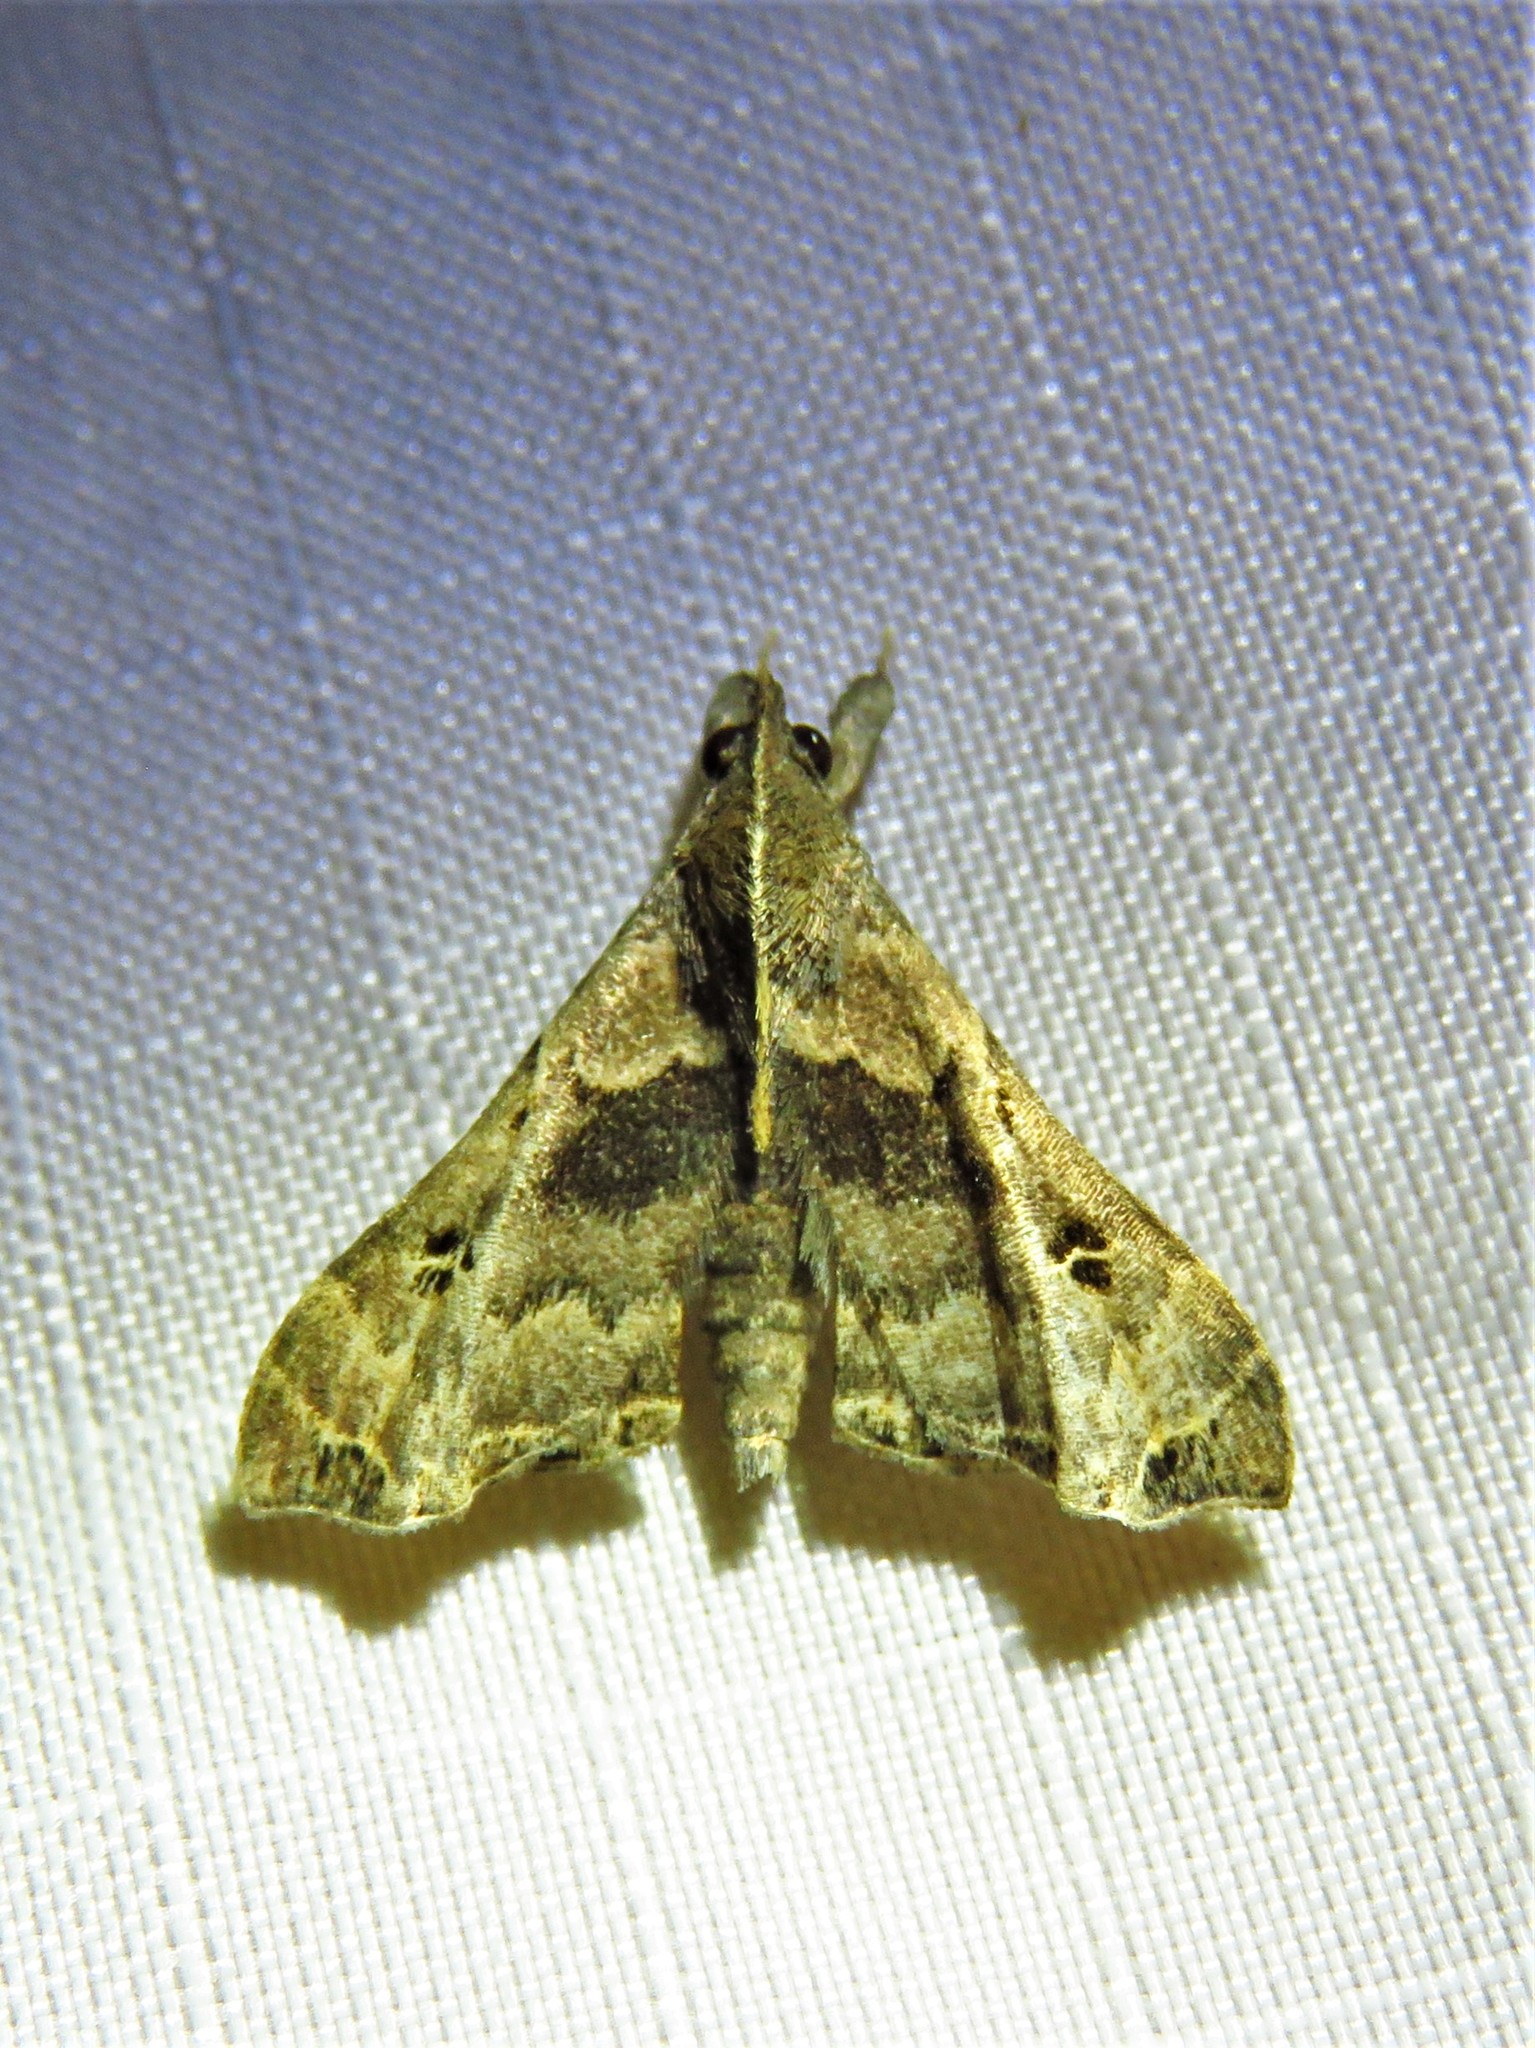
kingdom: Animalia
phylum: Arthropoda
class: Insecta
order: Lepidoptera
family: Erebidae
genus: Palthis
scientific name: Palthis asopialis
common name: Faint-spotted palthis moth
